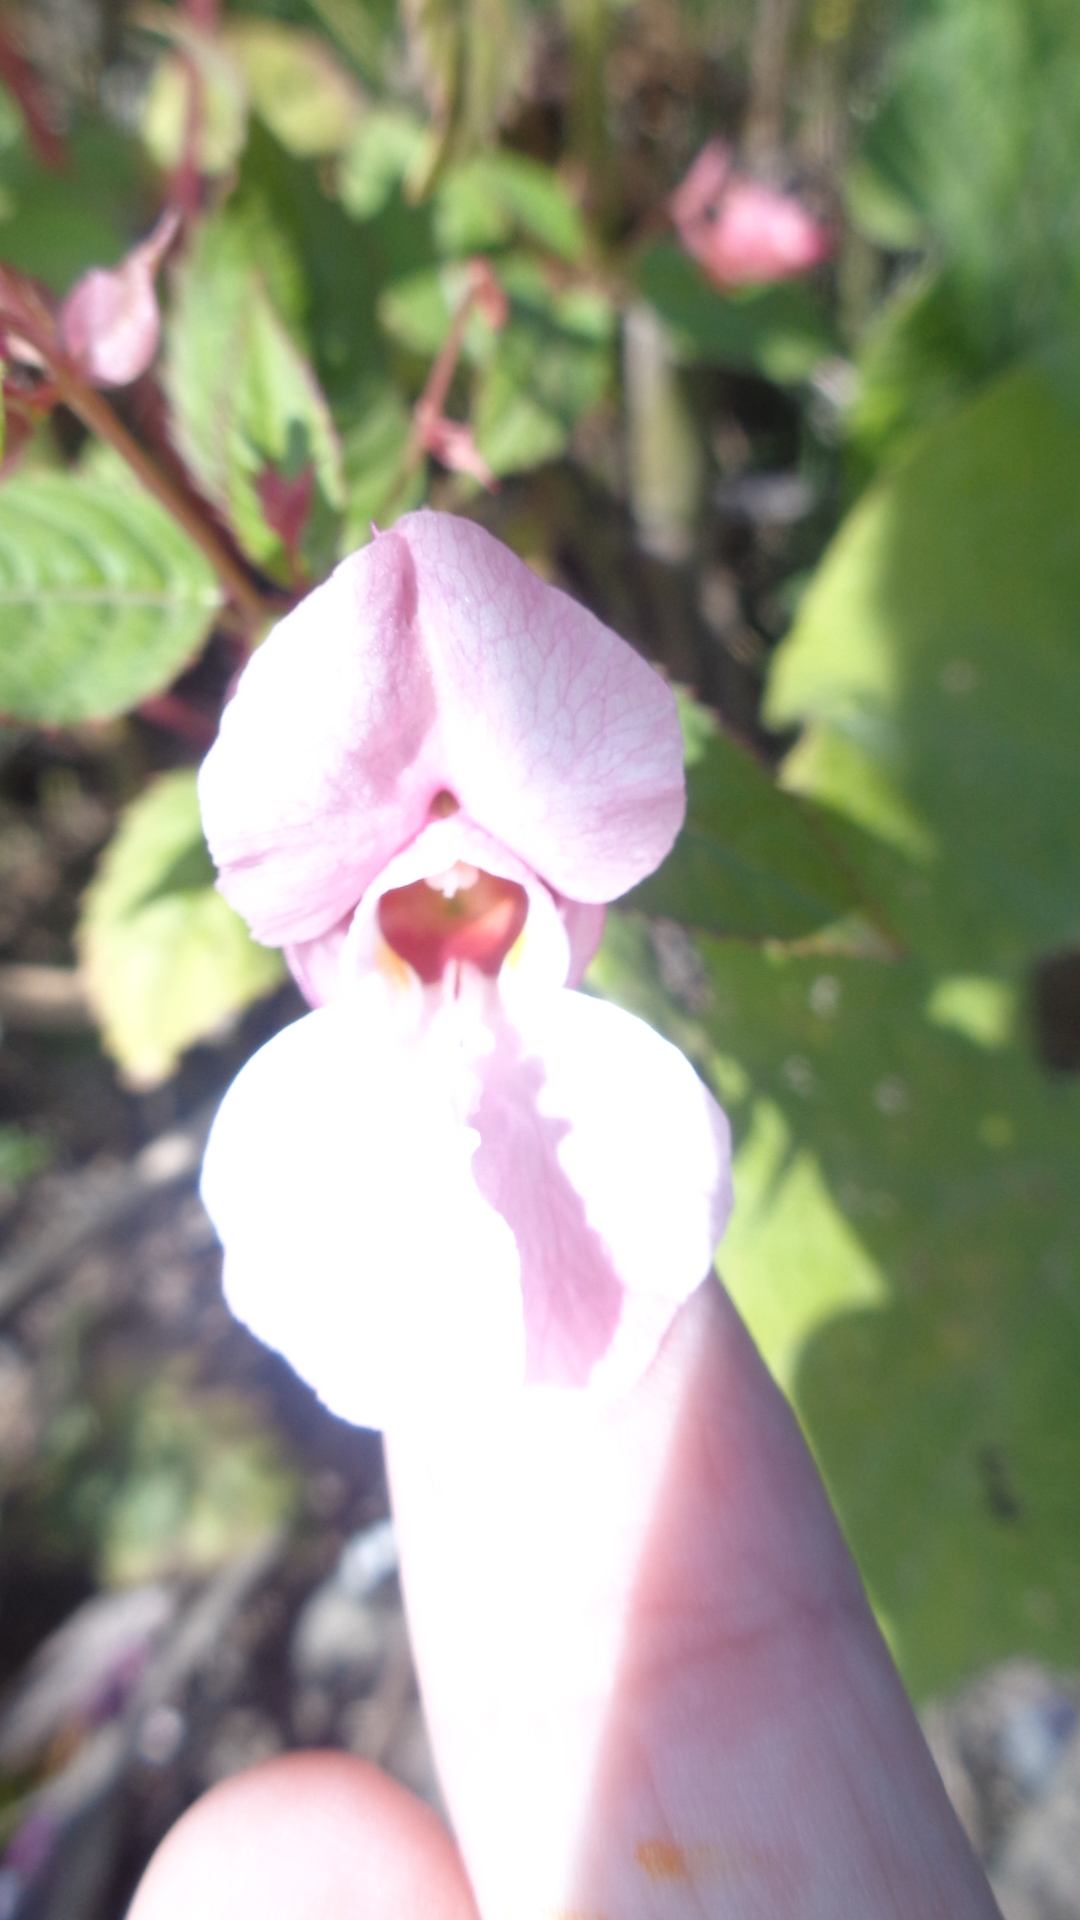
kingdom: Plantae
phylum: Tracheophyta
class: Magnoliopsida
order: Ericales
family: Balsaminaceae
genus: Impatiens
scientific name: Impatiens glandulifera
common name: Himalayan balsam
